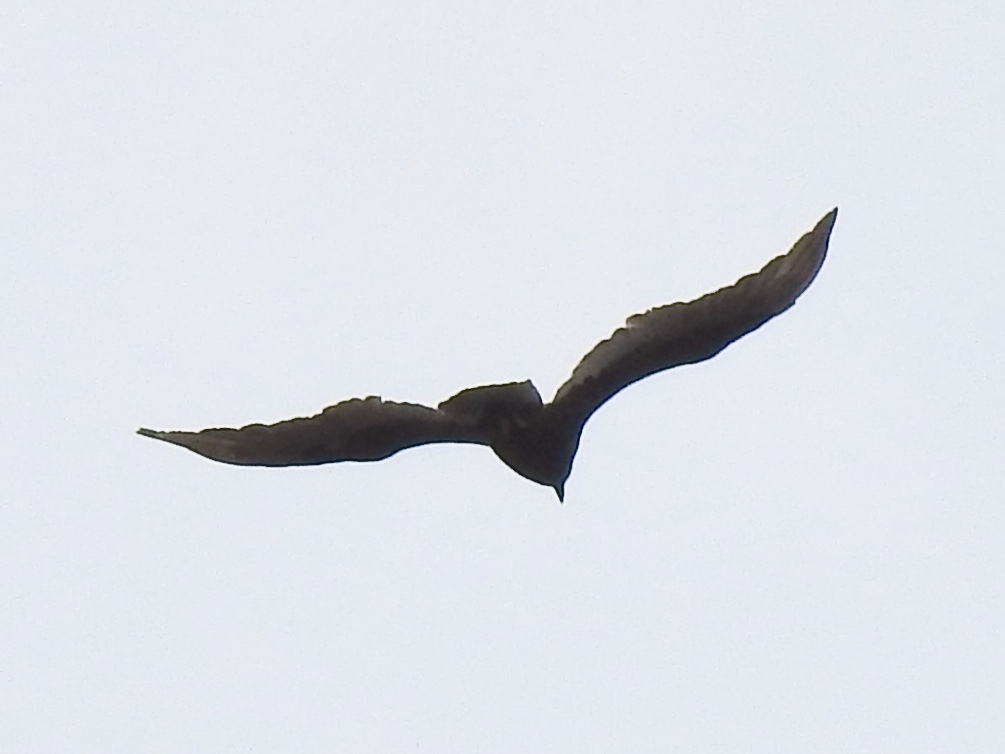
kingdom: Animalia
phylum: Chordata
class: Aves
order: Accipitriformes
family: Cathartidae
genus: Cathartes
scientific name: Cathartes aura
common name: Turkey vulture
